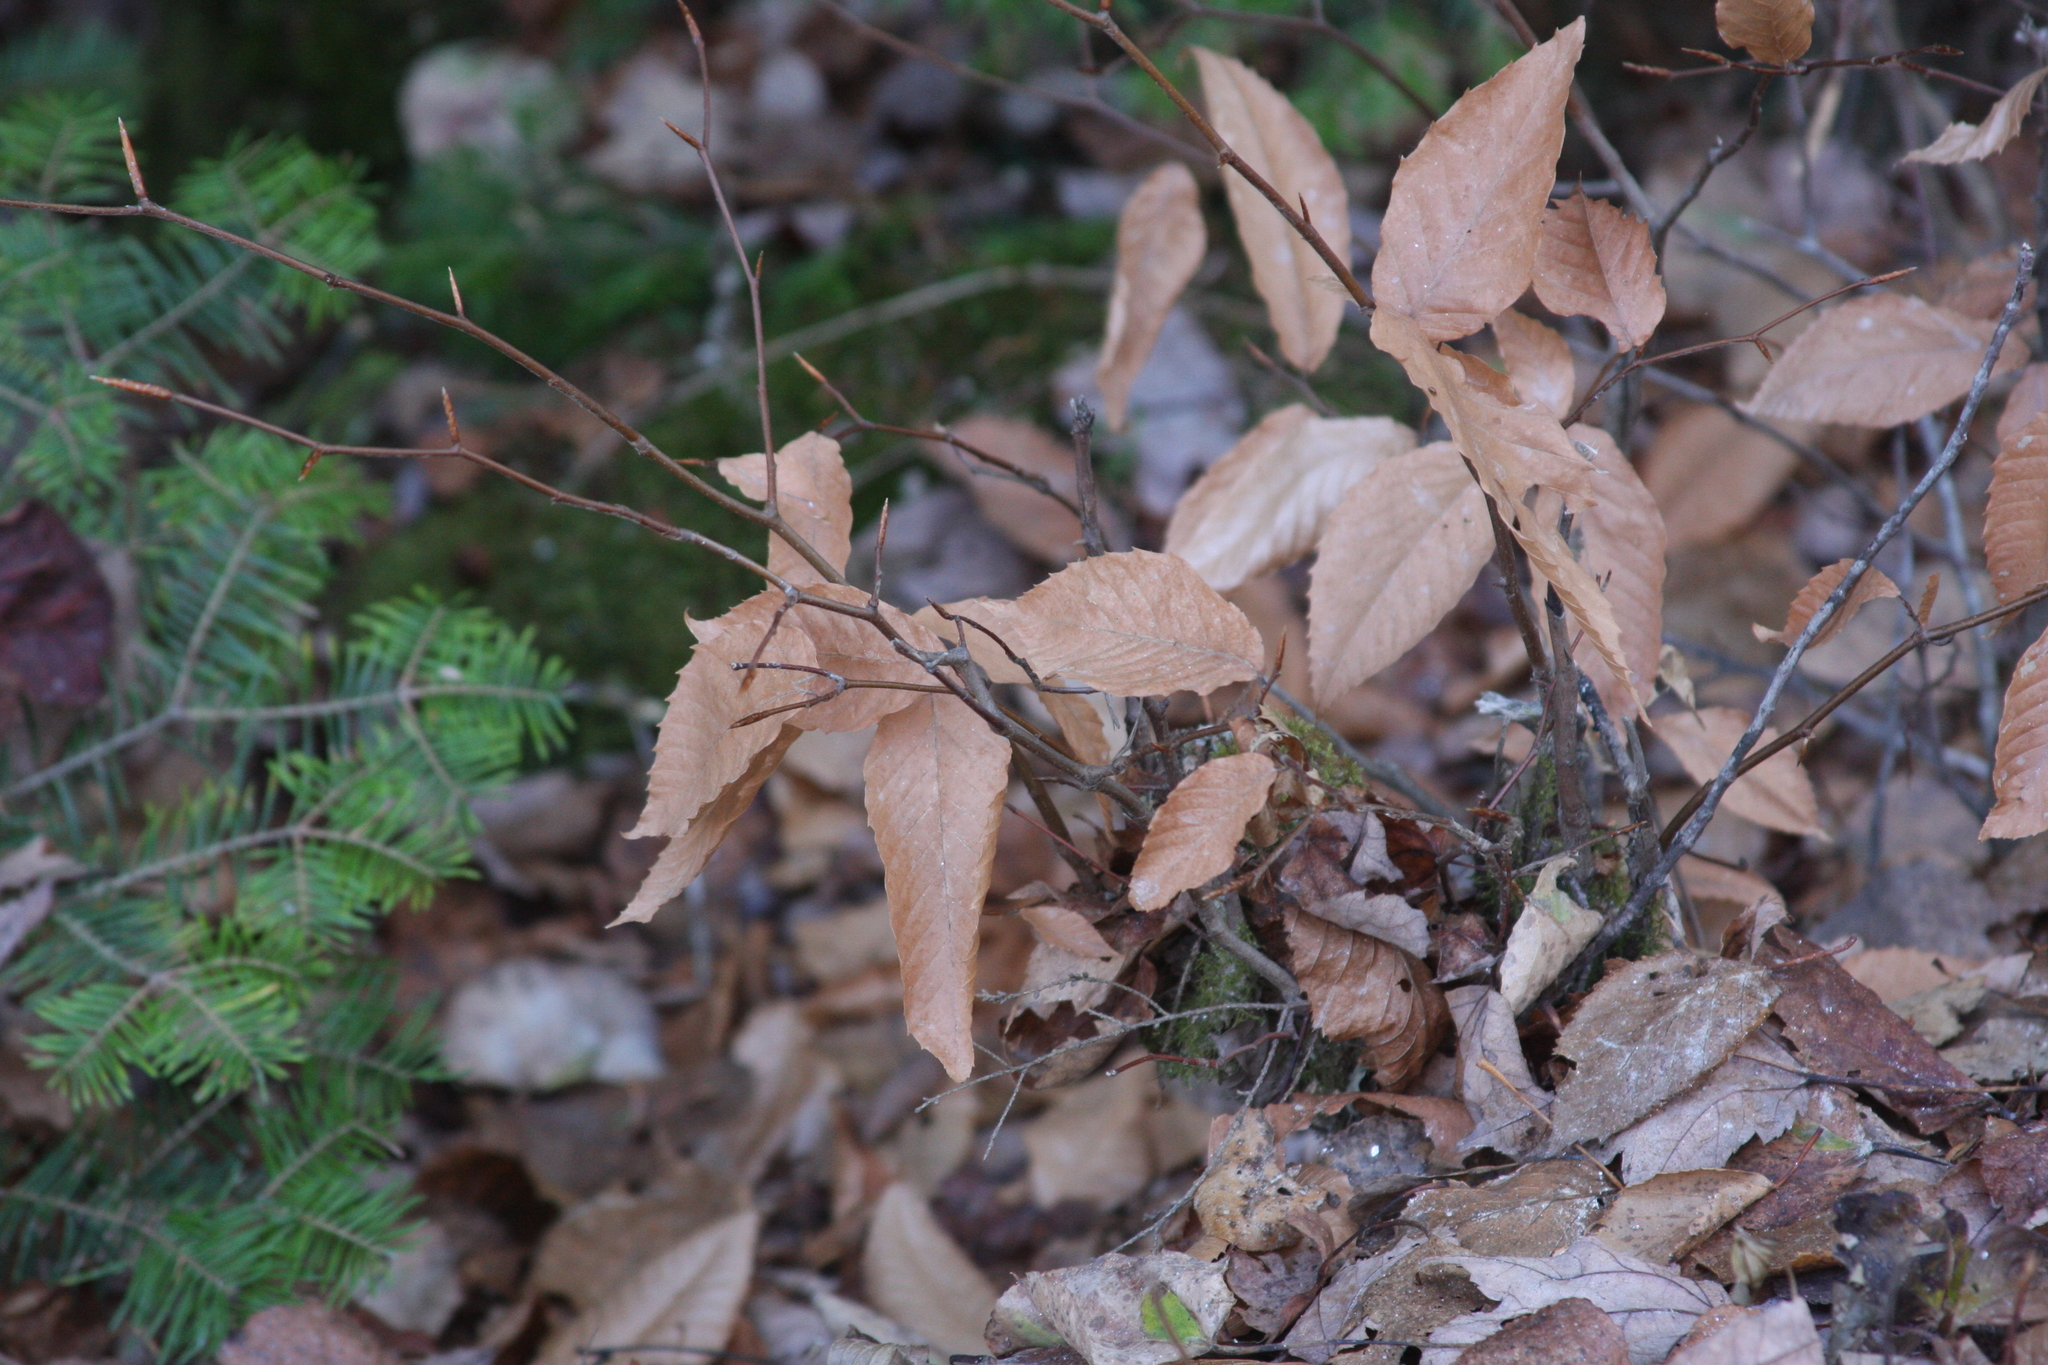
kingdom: Plantae
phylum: Tracheophyta
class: Magnoliopsida
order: Fagales
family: Fagaceae
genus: Fagus
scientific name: Fagus grandifolia
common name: American beech
